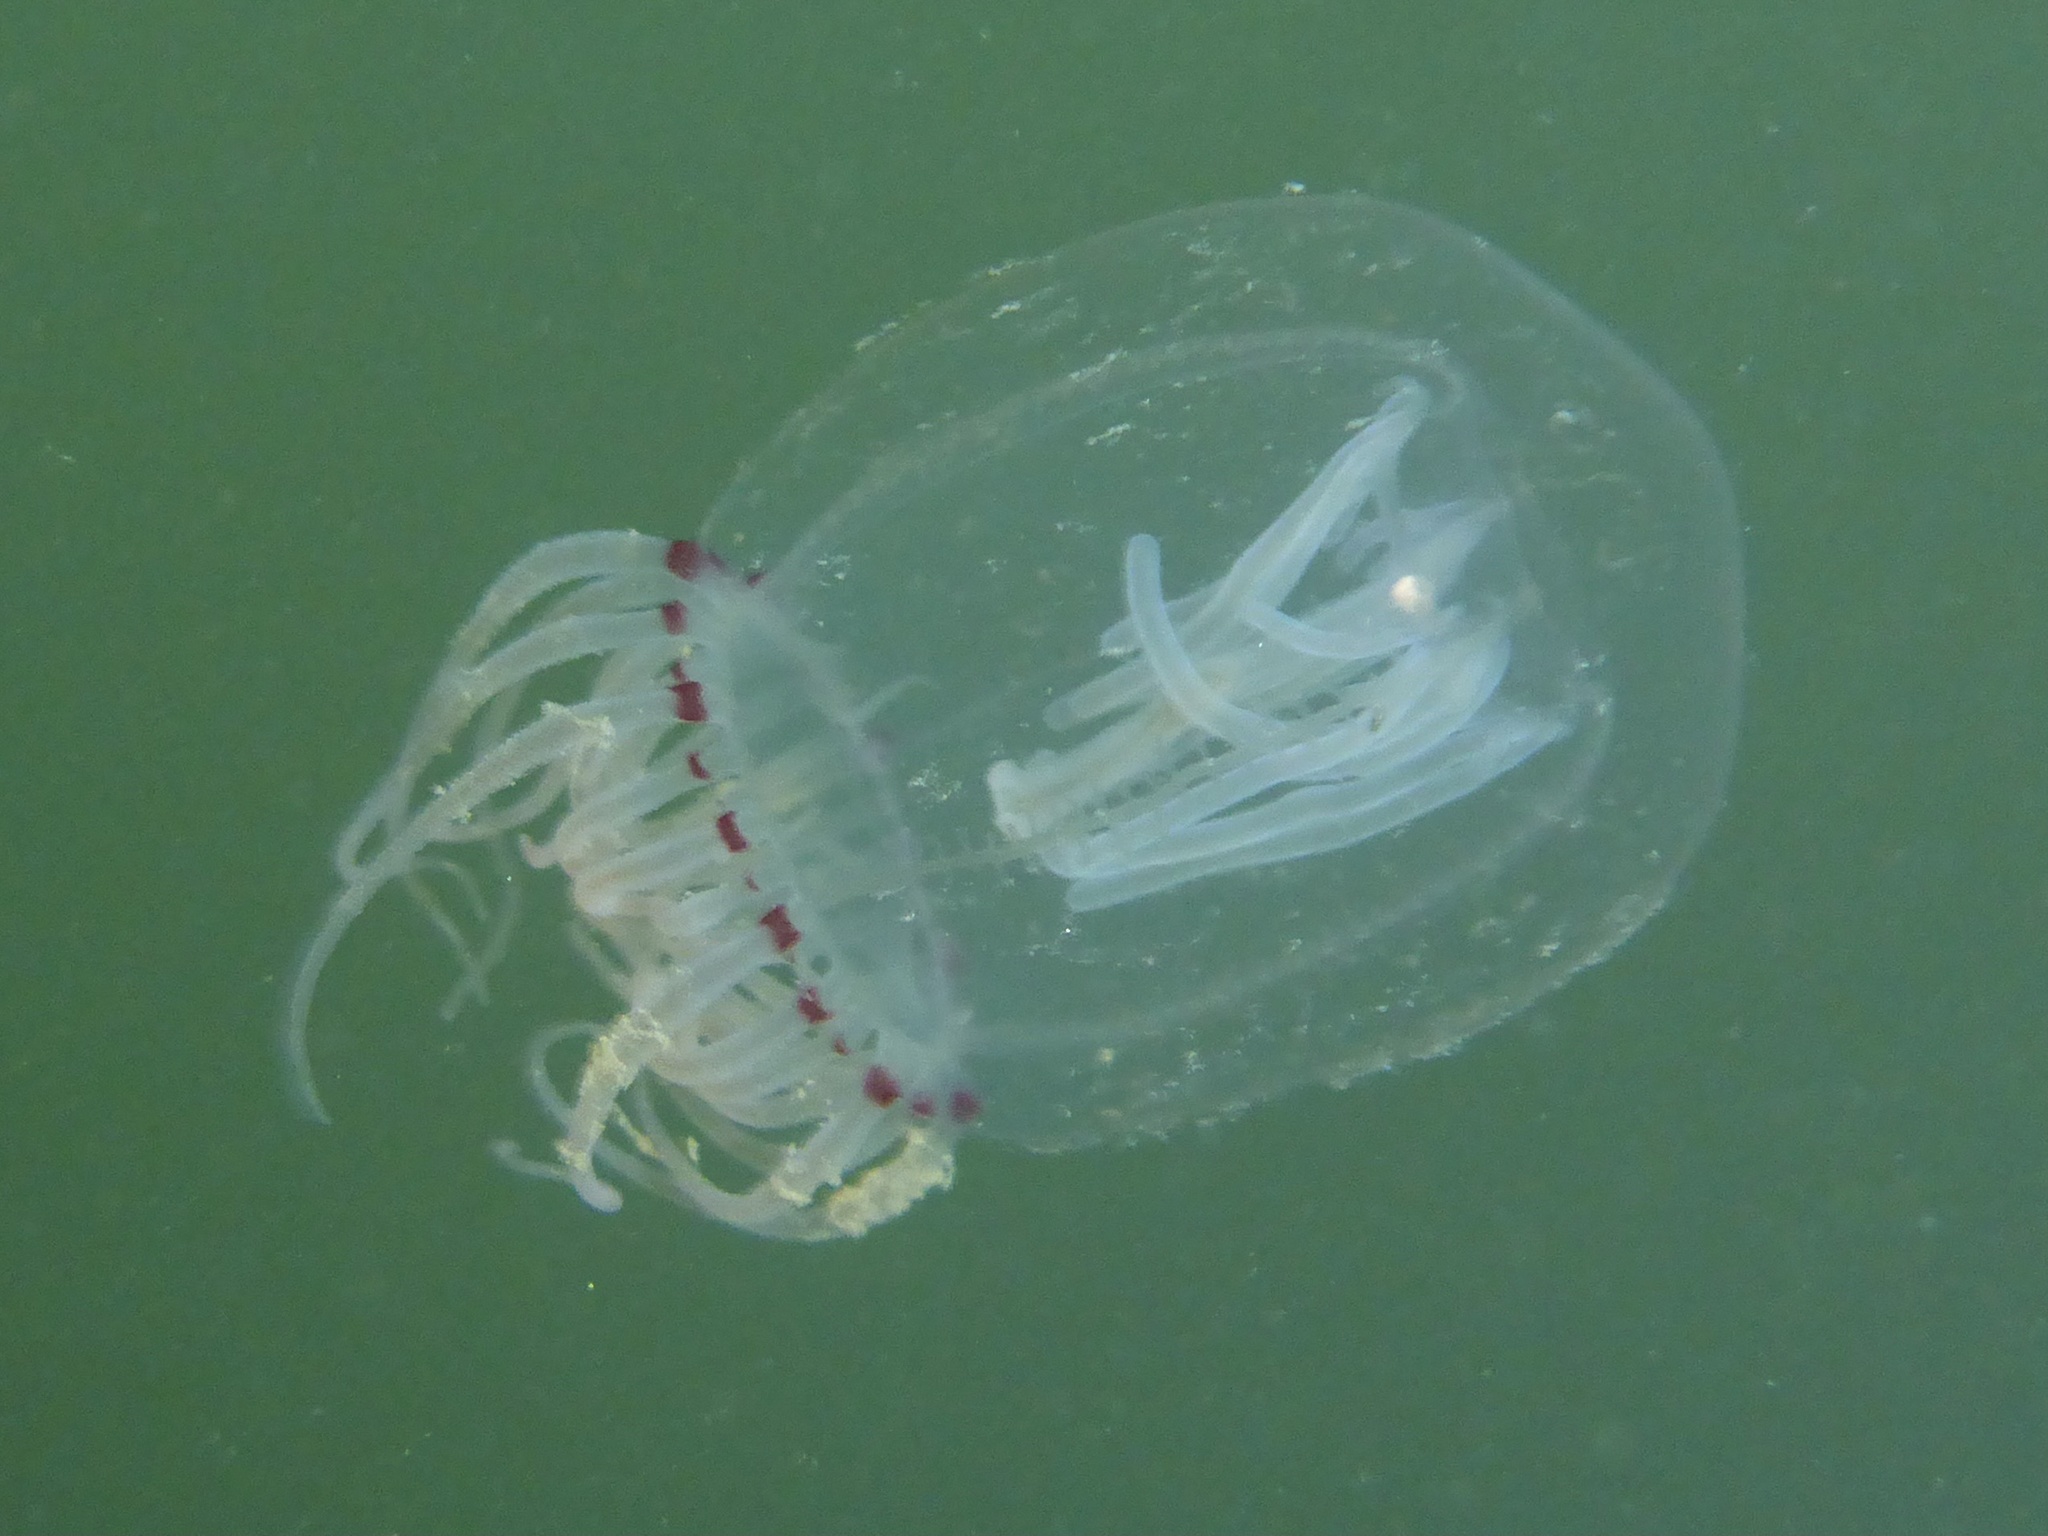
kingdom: Animalia
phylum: Cnidaria
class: Hydrozoa
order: Anthoathecata
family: Corynidae
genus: Polyorchis
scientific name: Polyorchis penicillatus
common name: Penicillate jellyfish
